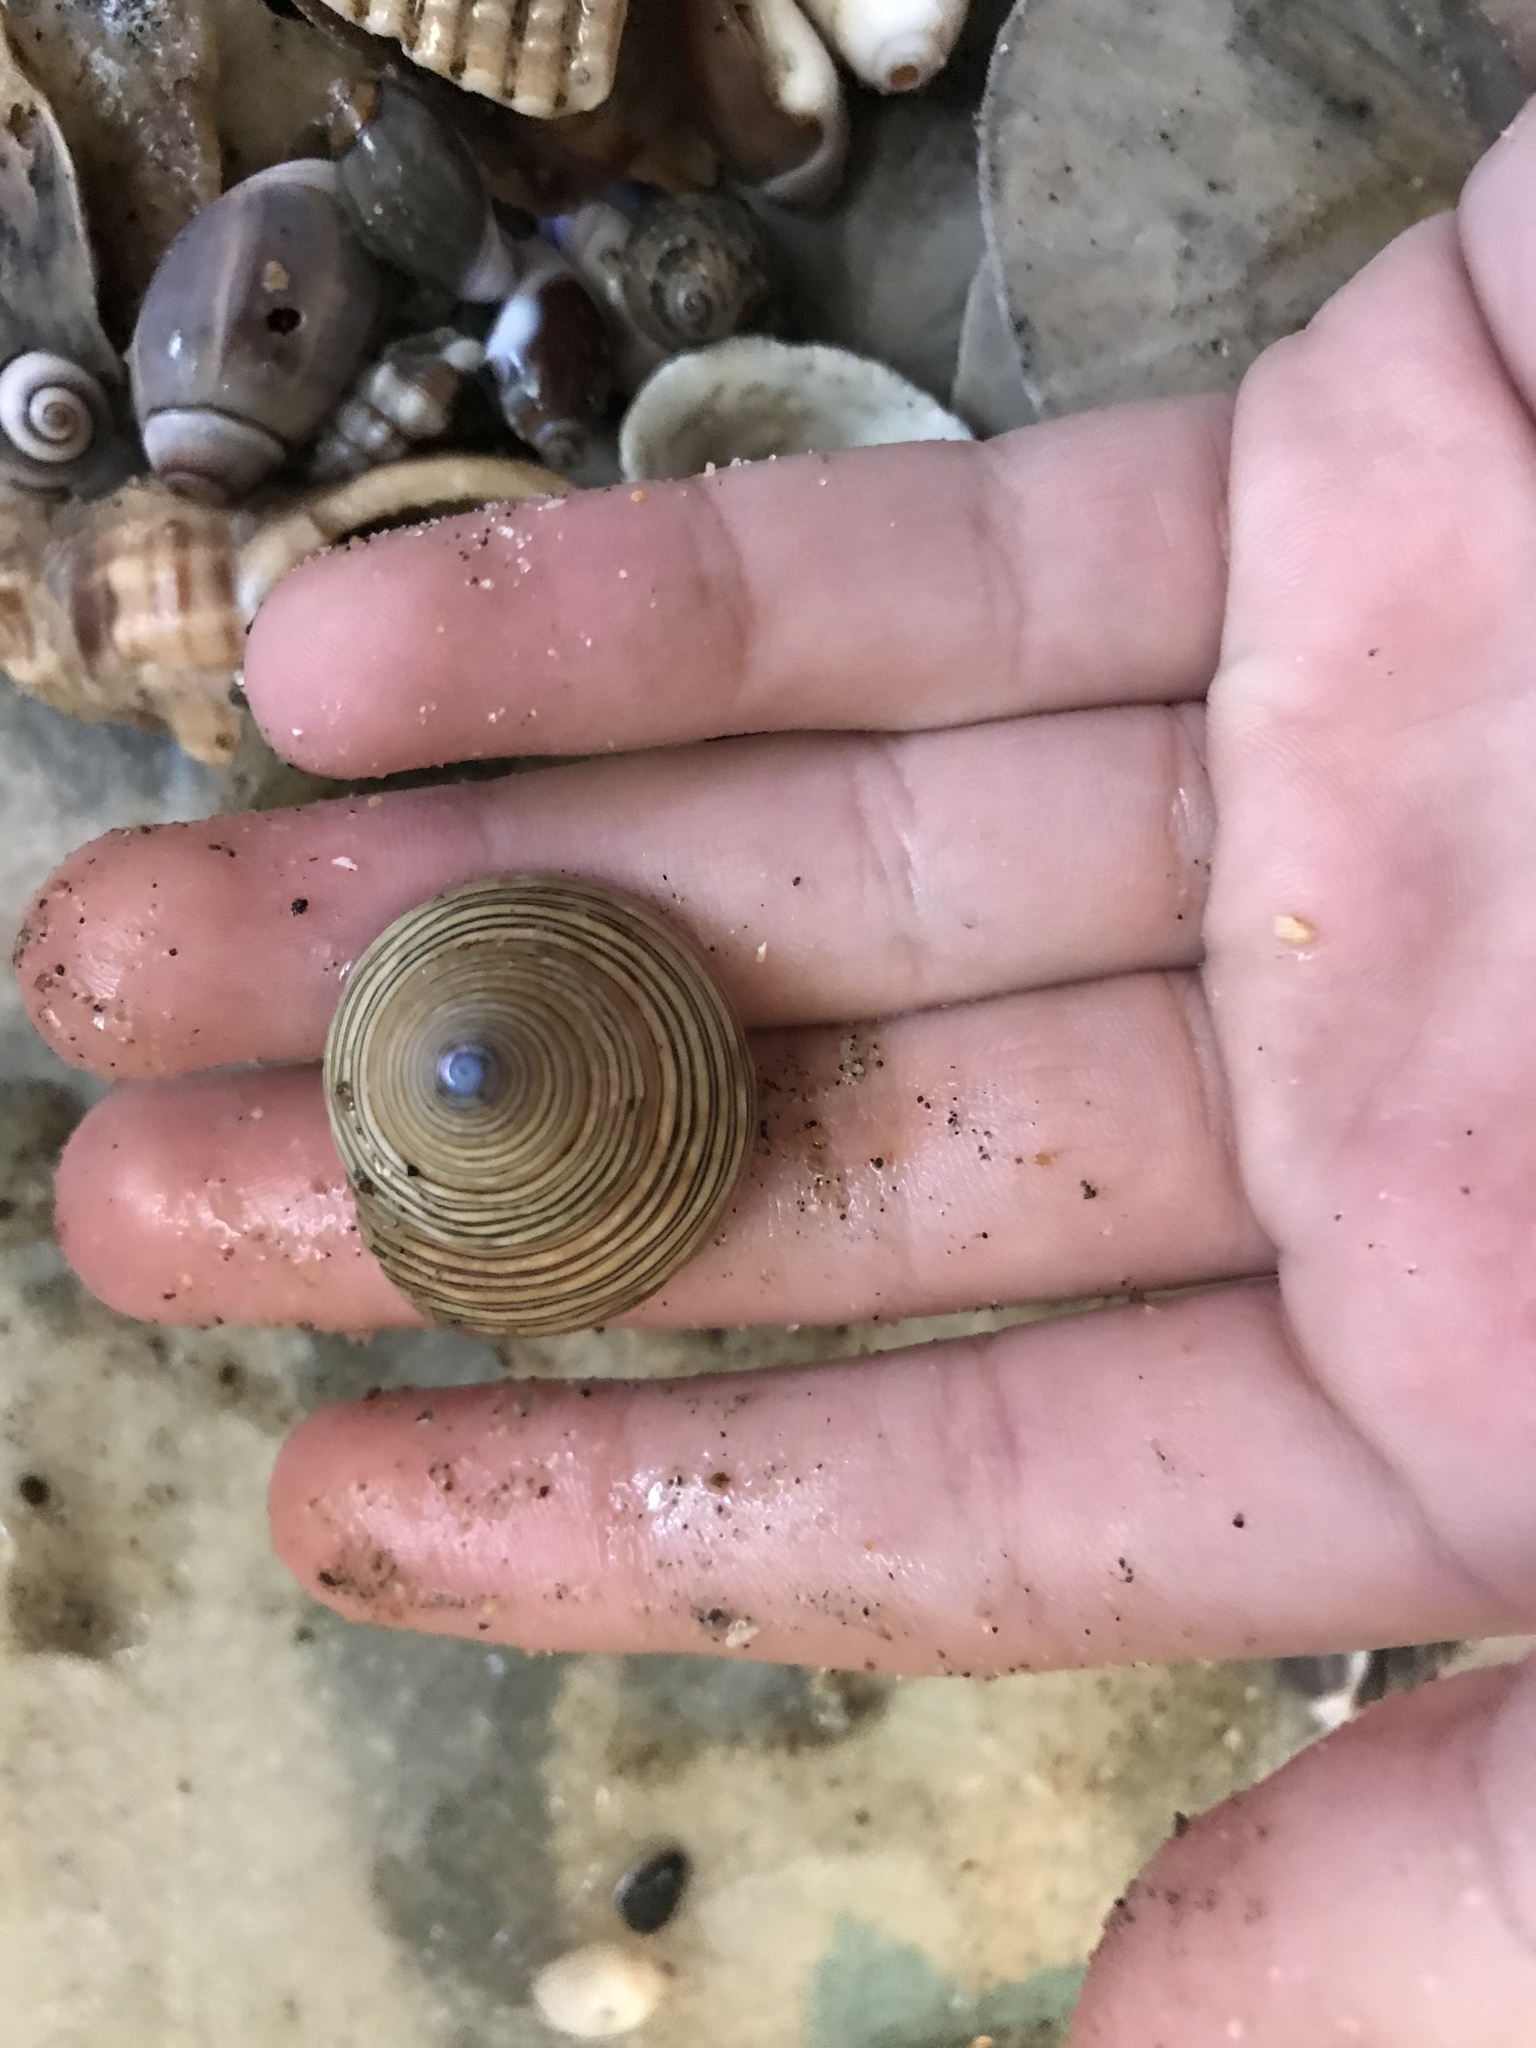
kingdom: Animalia
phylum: Mollusca
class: Gastropoda
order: Trochida
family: Calliostomatidae
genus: Calliostoma
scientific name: Calliostoma canaliculatum
